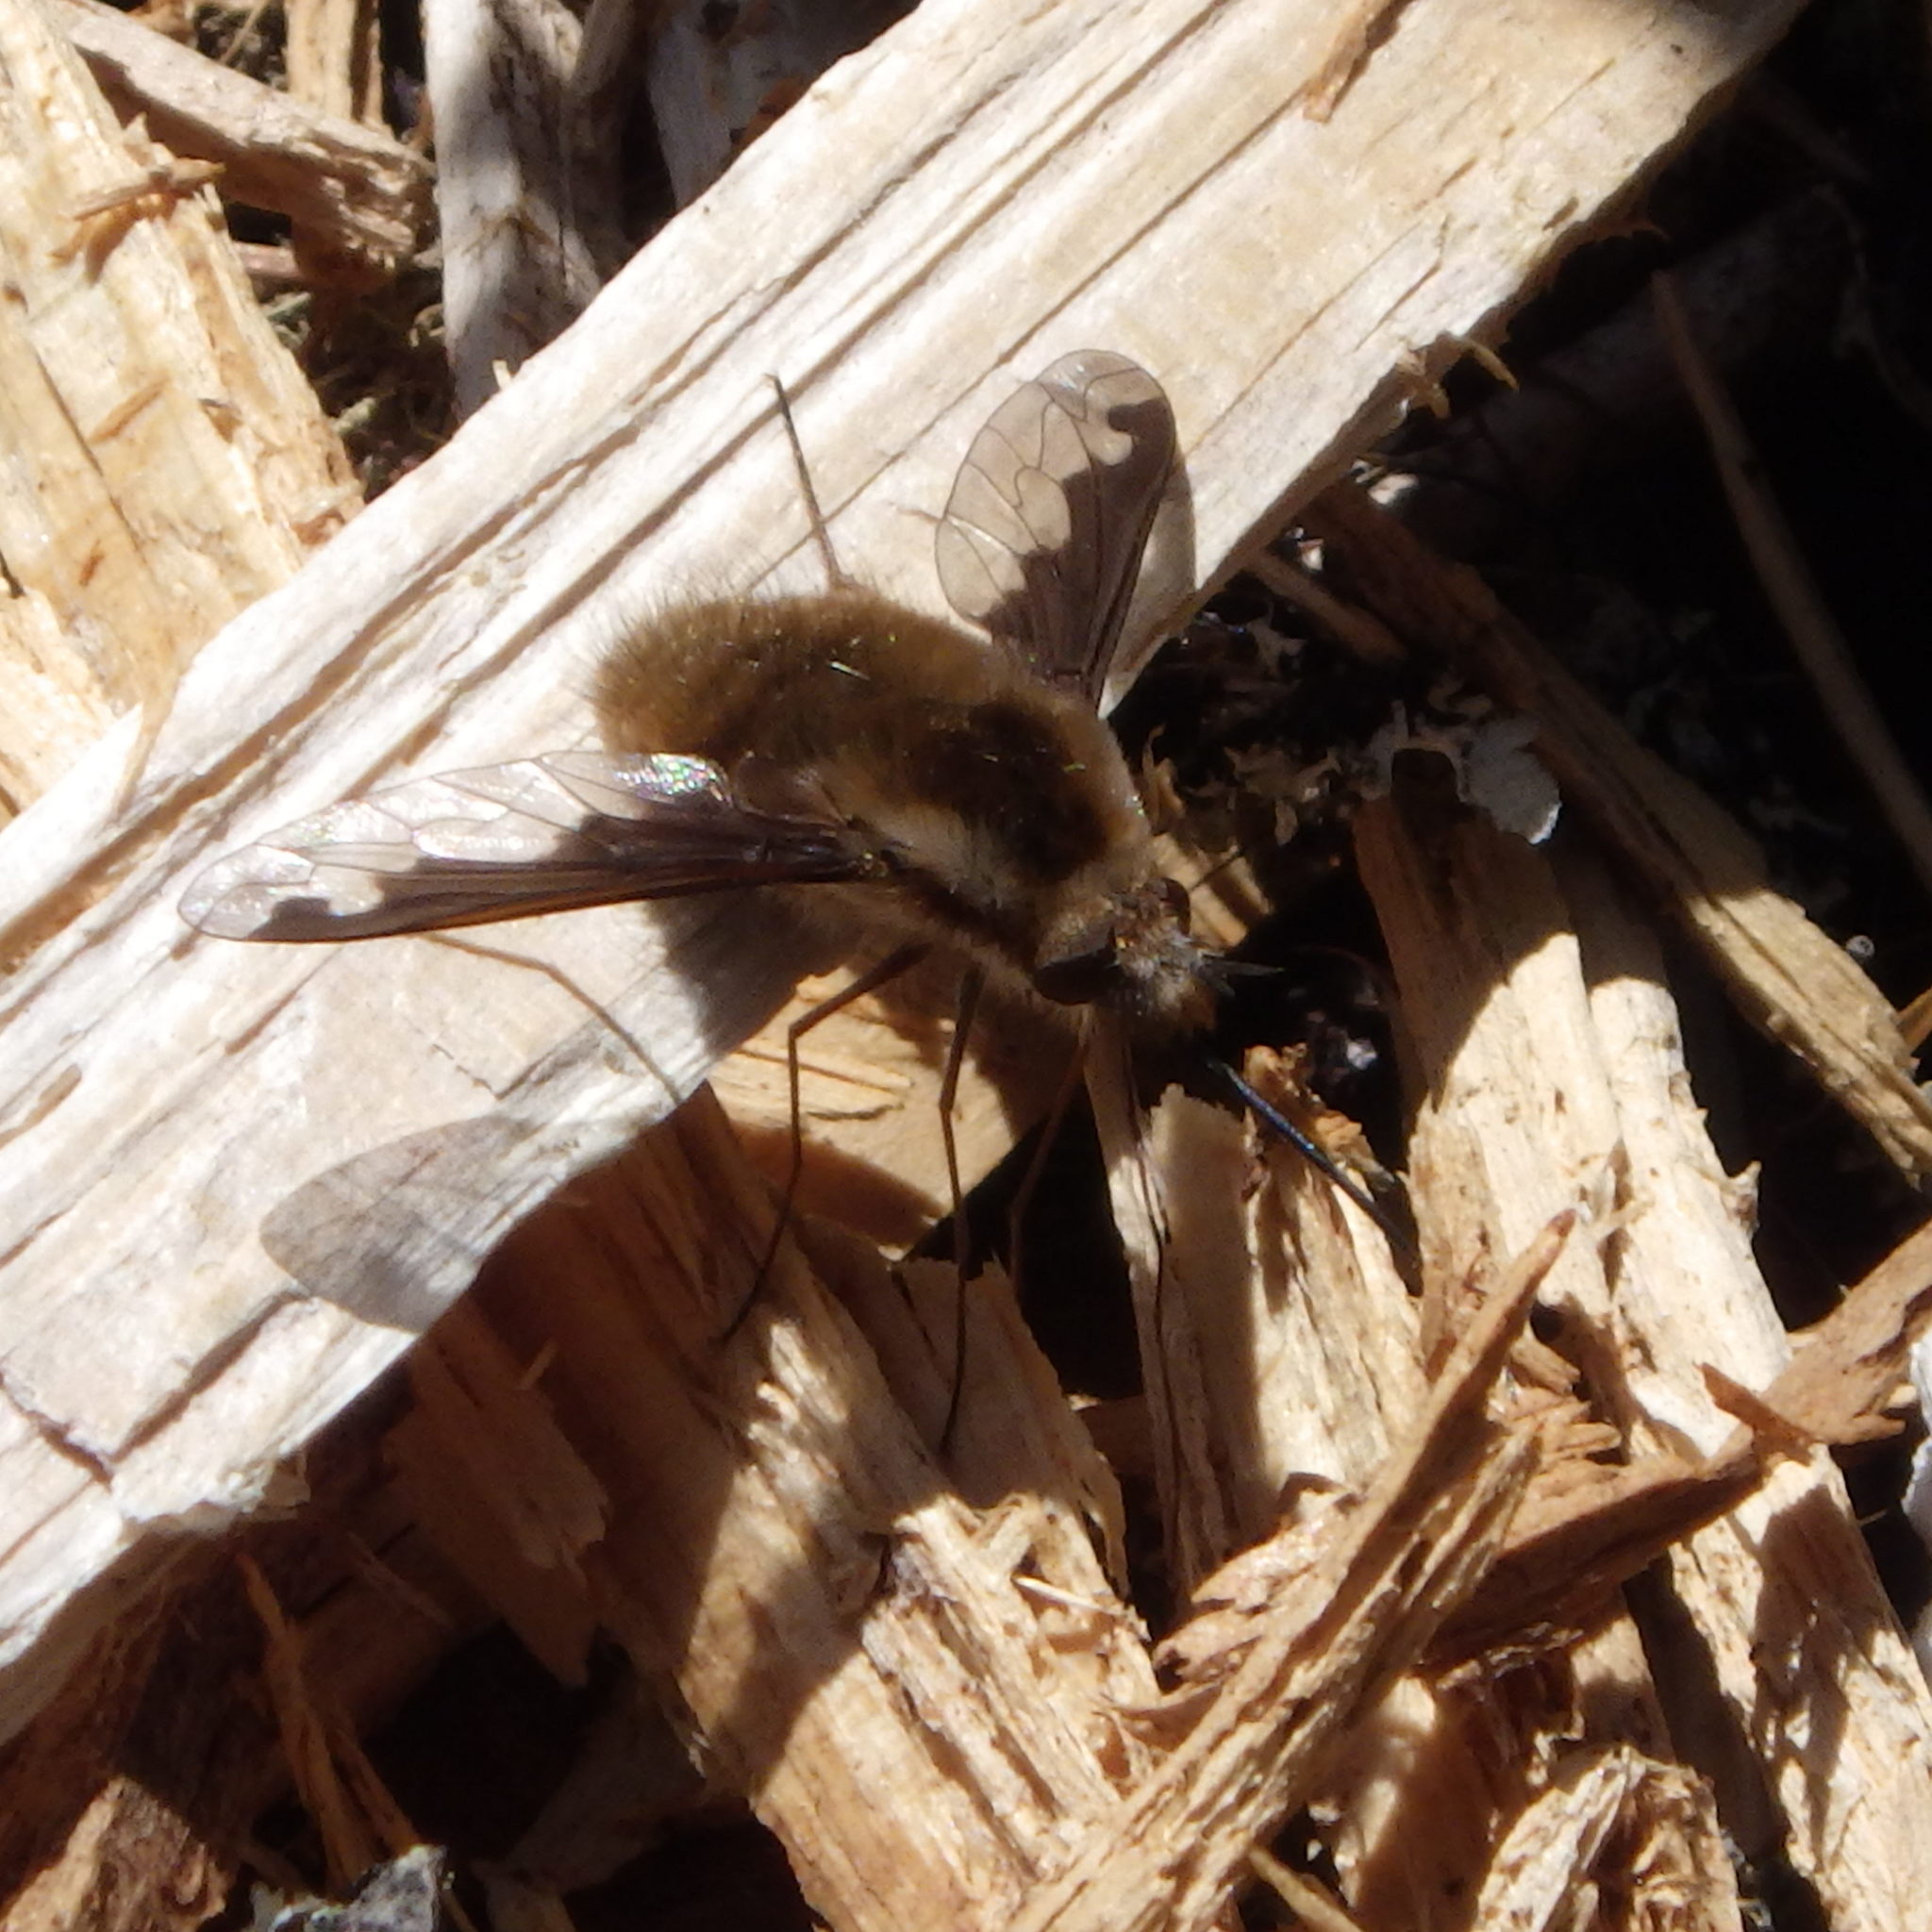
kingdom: Animalia
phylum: Arthropoda
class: Insecta
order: Diptera
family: Bombyliidae
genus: Bombylius
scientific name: Bombylius major
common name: Bee fly
